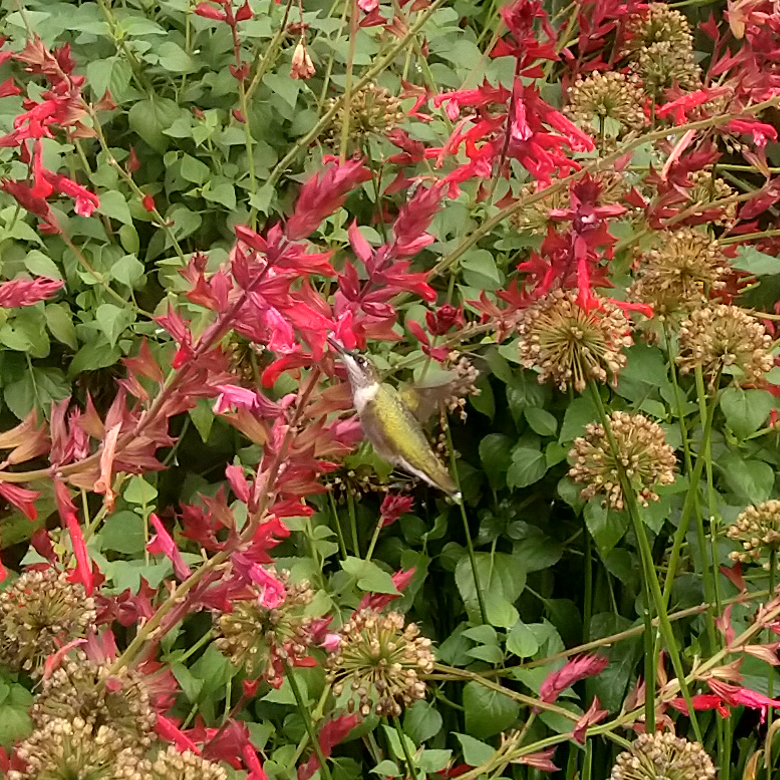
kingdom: Animalia
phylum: Chordata
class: Aves
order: Apodiformes
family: Trochilidae
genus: Archilochus
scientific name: Archilochus colubris
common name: Ruby-throated hummingbird
